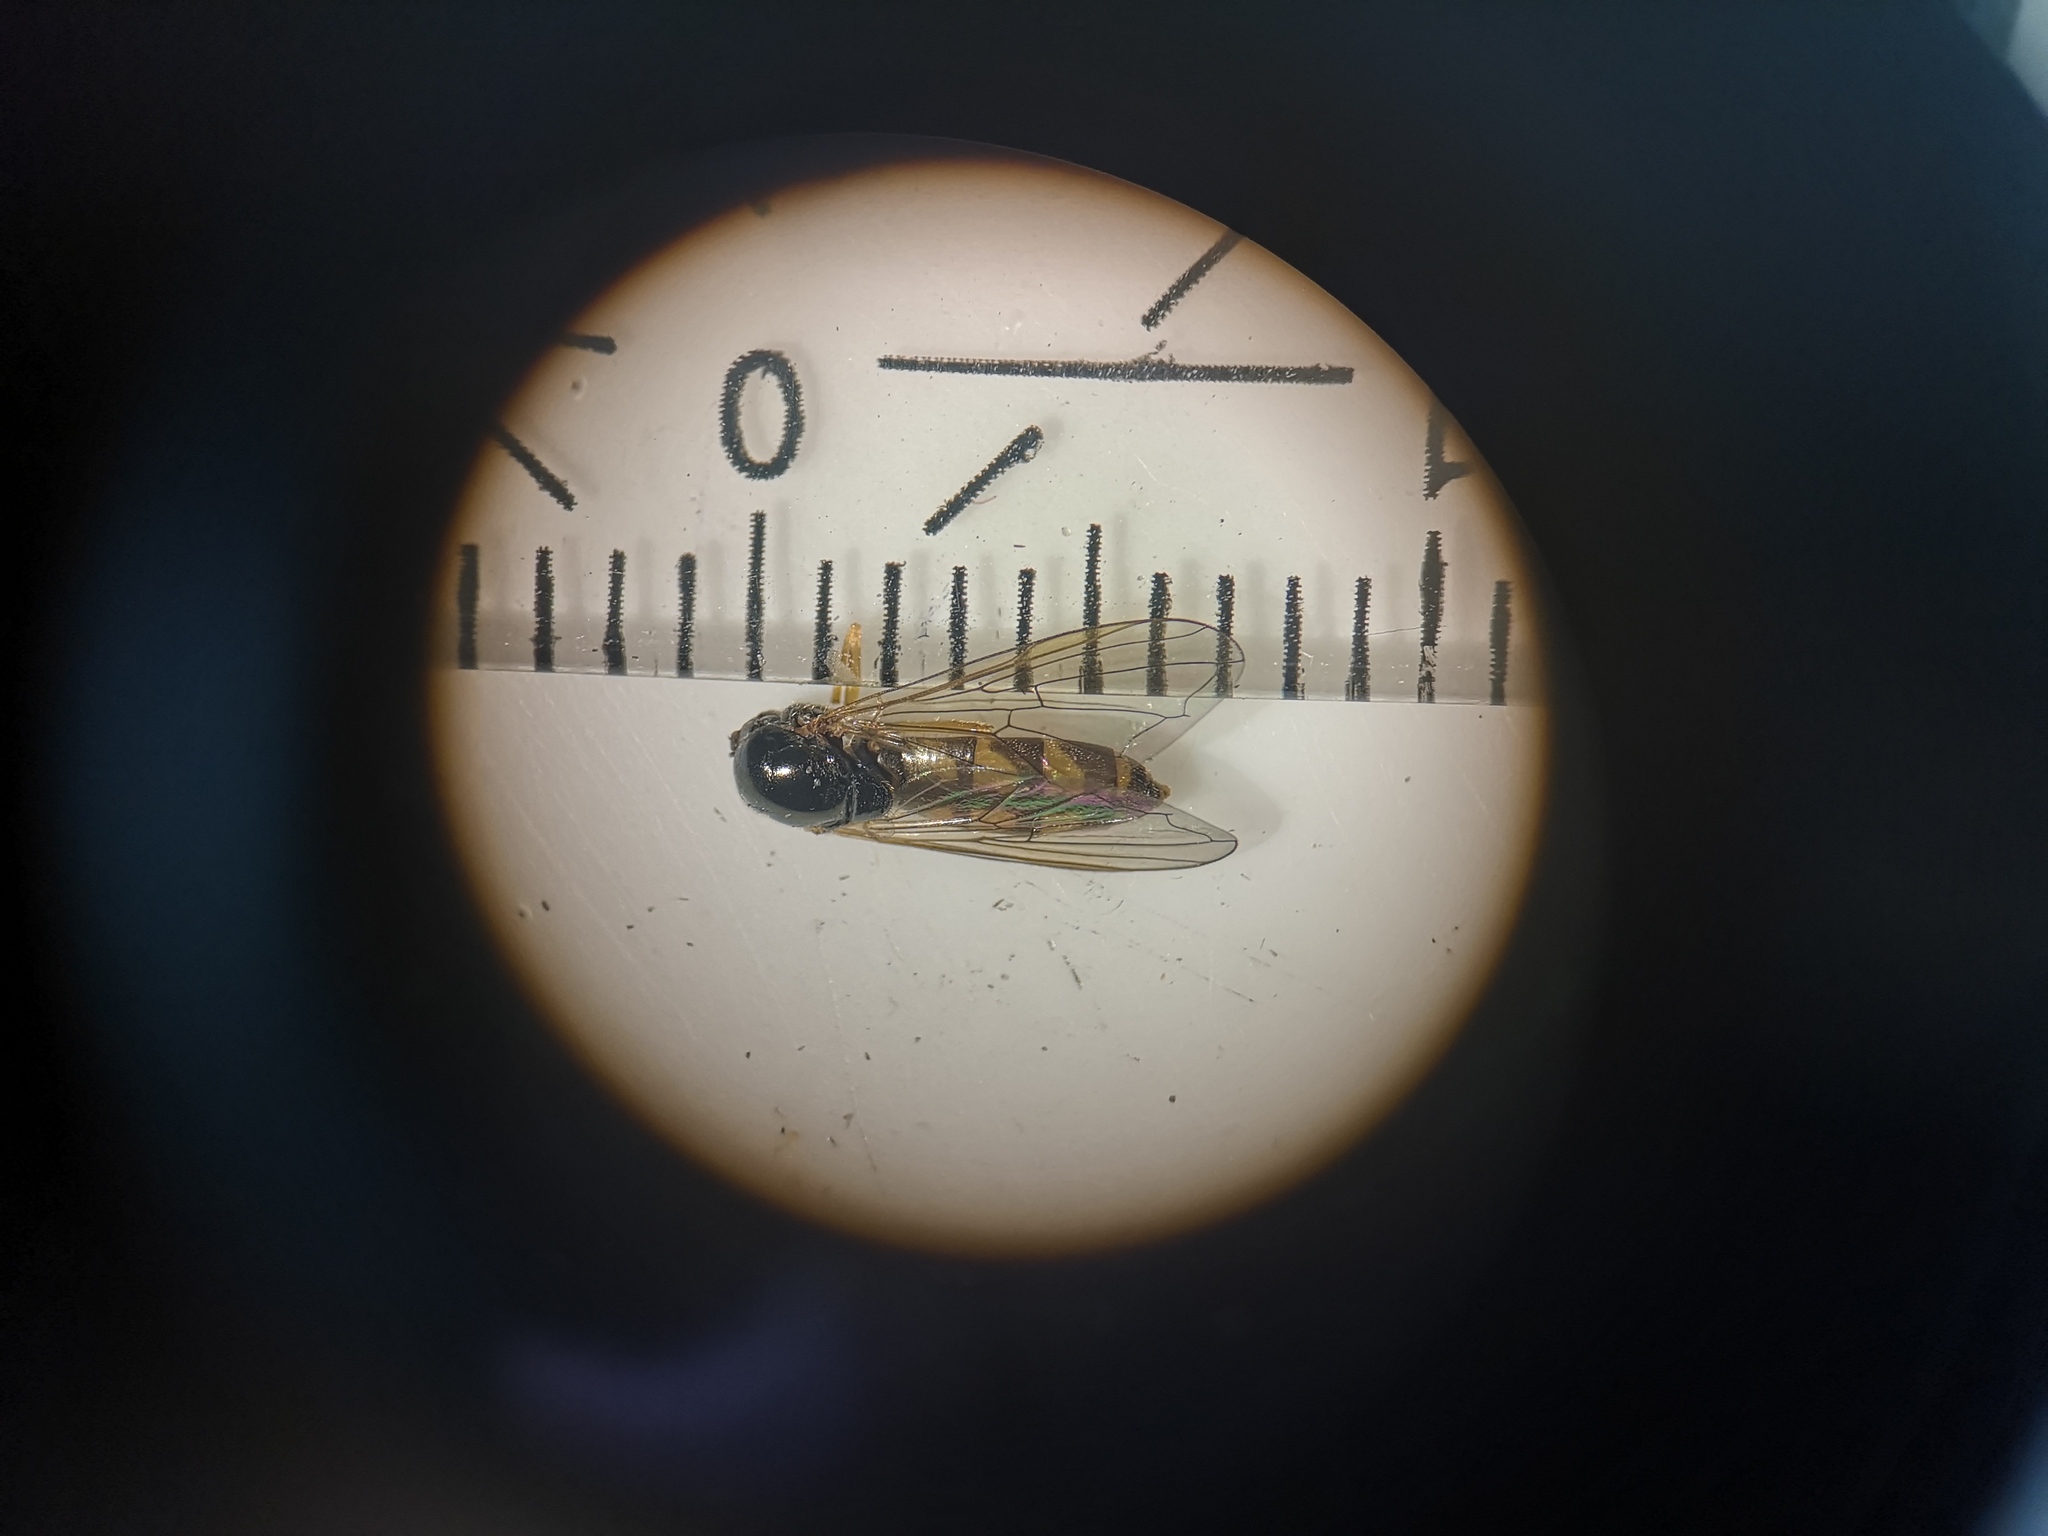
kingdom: Animalia
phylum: Arthropoda
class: Insecta
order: Diptera
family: Syrphidae
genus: Melanostoma
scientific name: Melanostoma scalare
